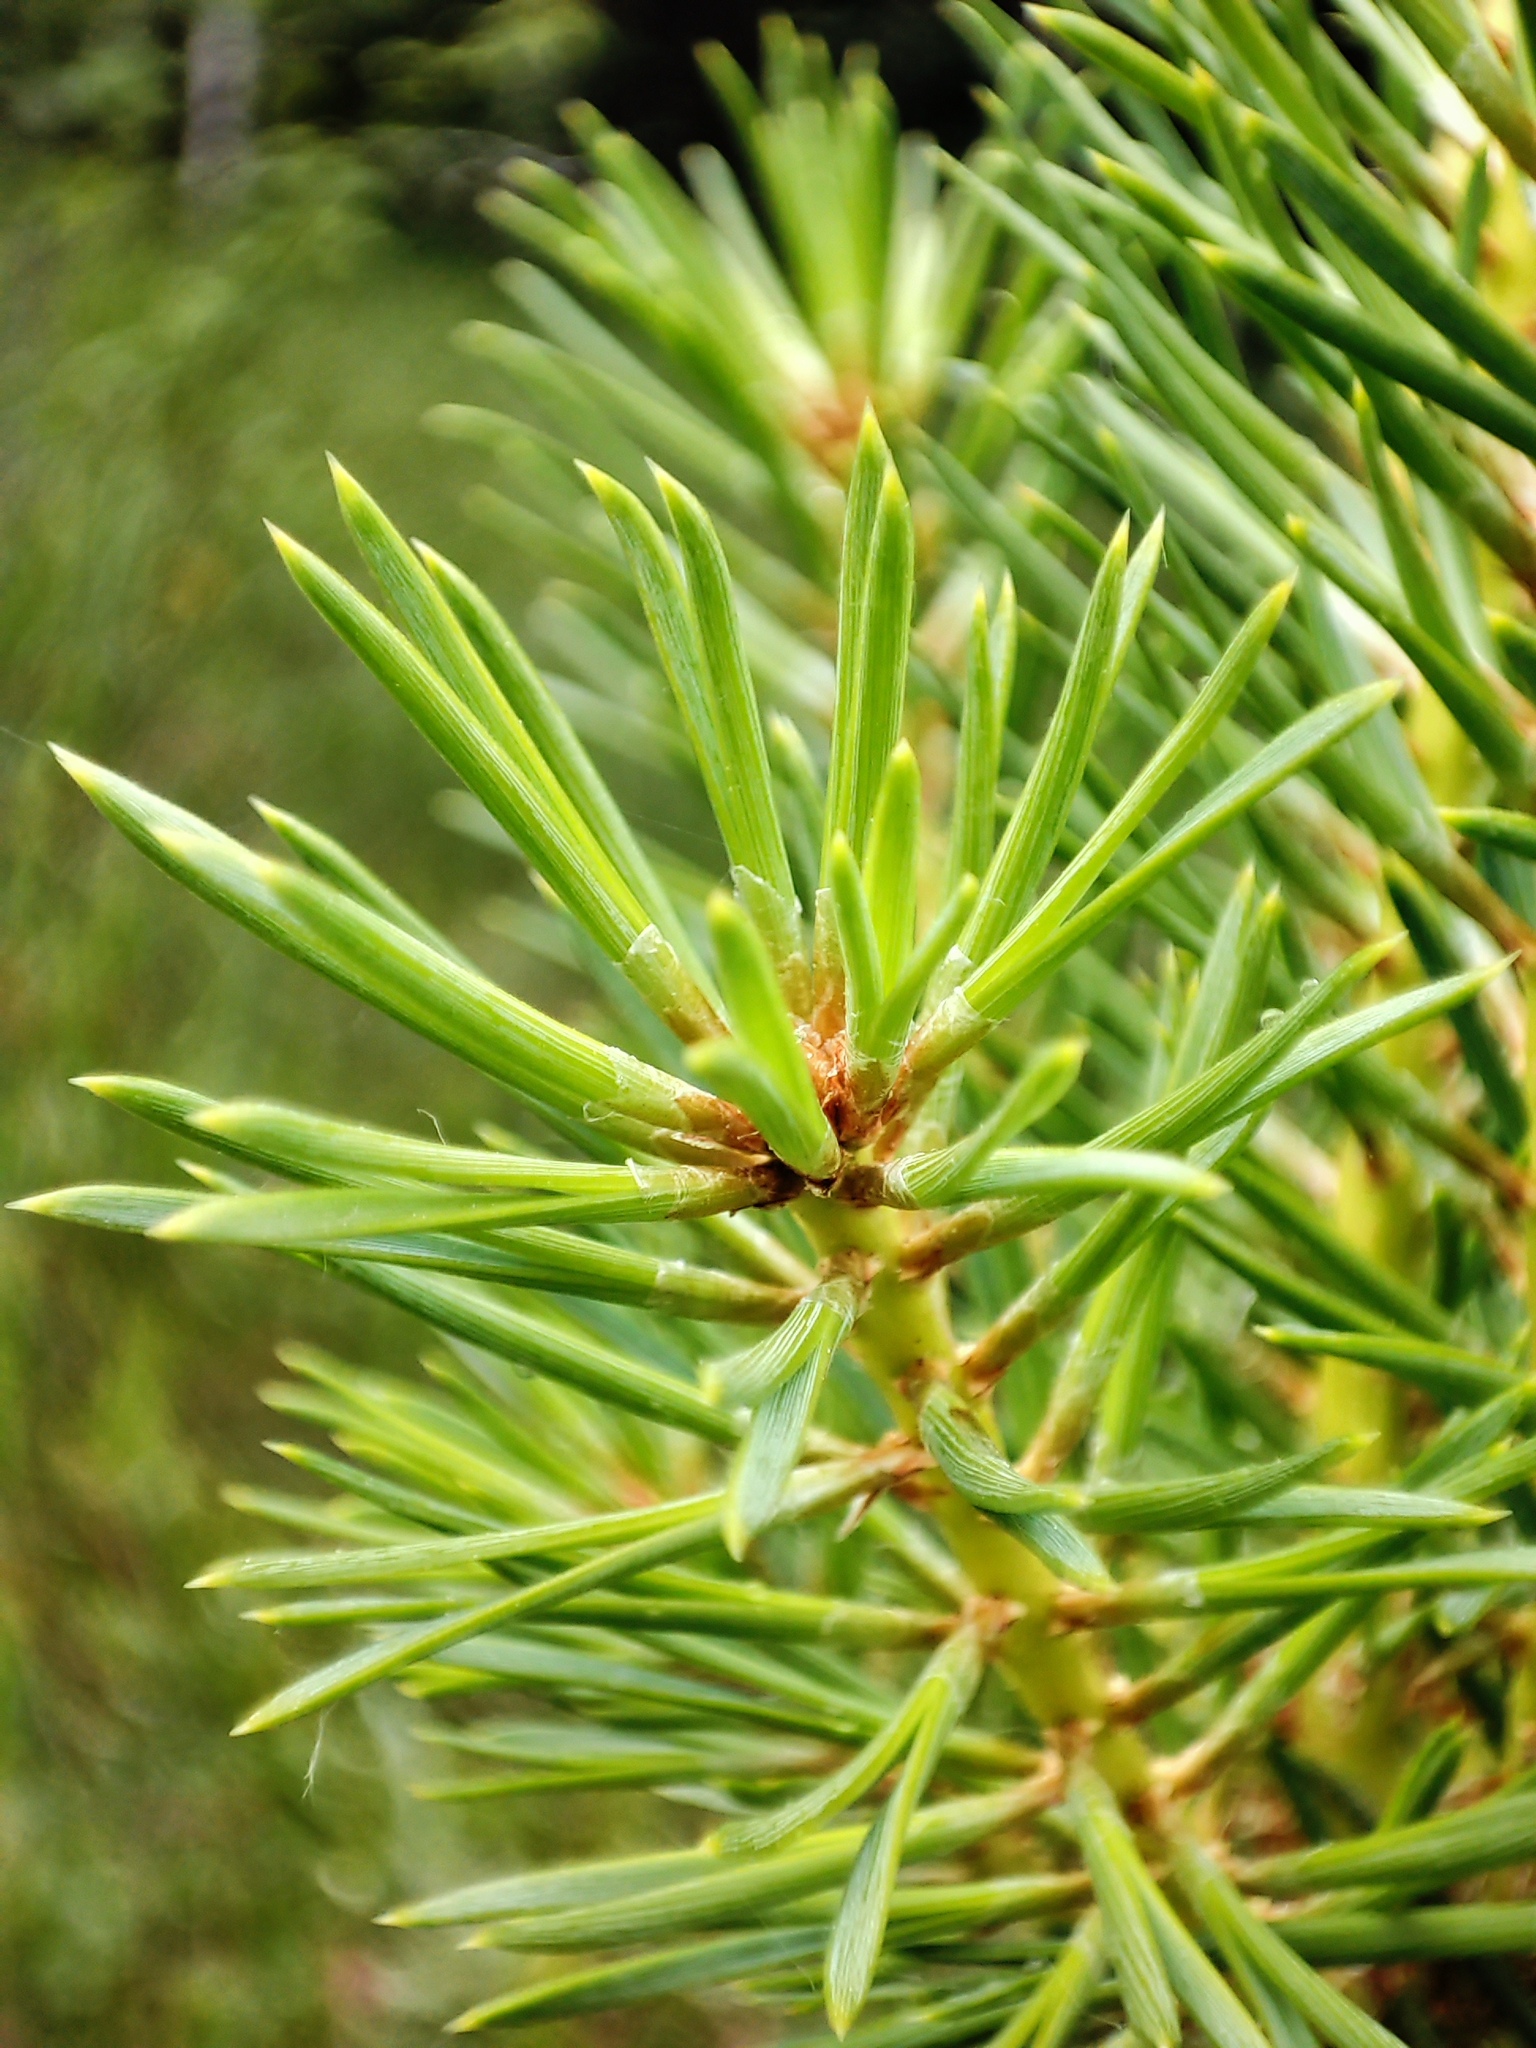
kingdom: Plantae
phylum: Tracheophyta
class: Pinopsida
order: Pinales
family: Pinaceae
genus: Pinus
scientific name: Pinus sylvestris
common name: Scots pine
